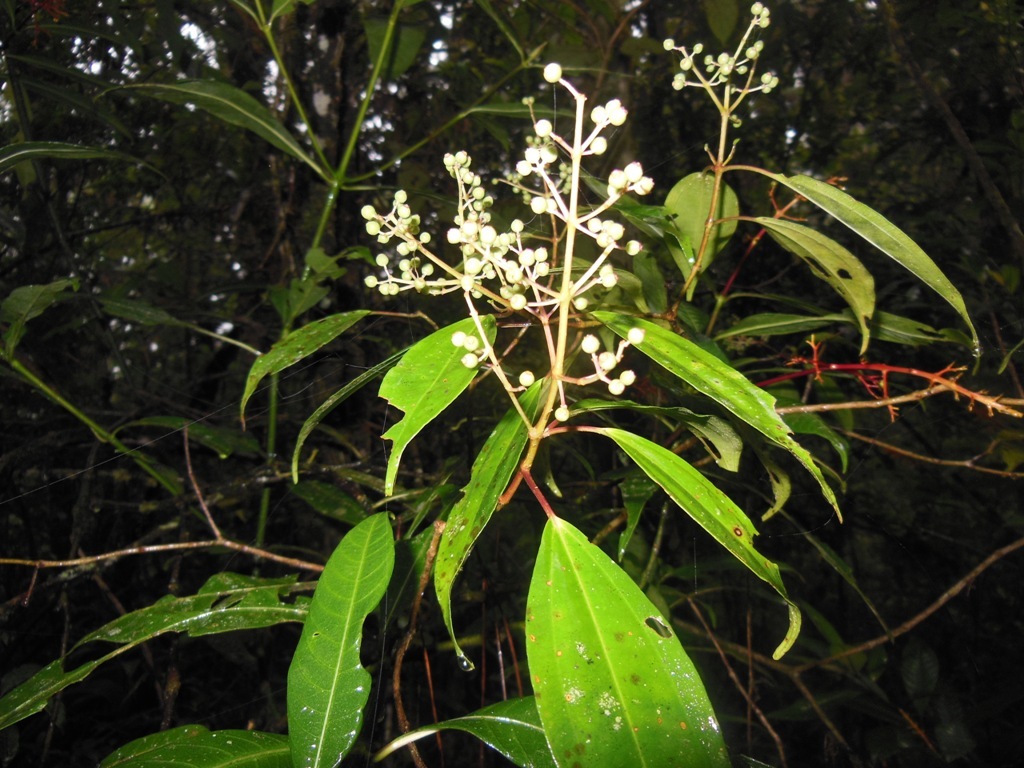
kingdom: Plantae
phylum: Tracheophyta
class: Magnoliopsida
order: Myrtales
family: Melastomataceae
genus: Miconia
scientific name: Miconia mexicana
